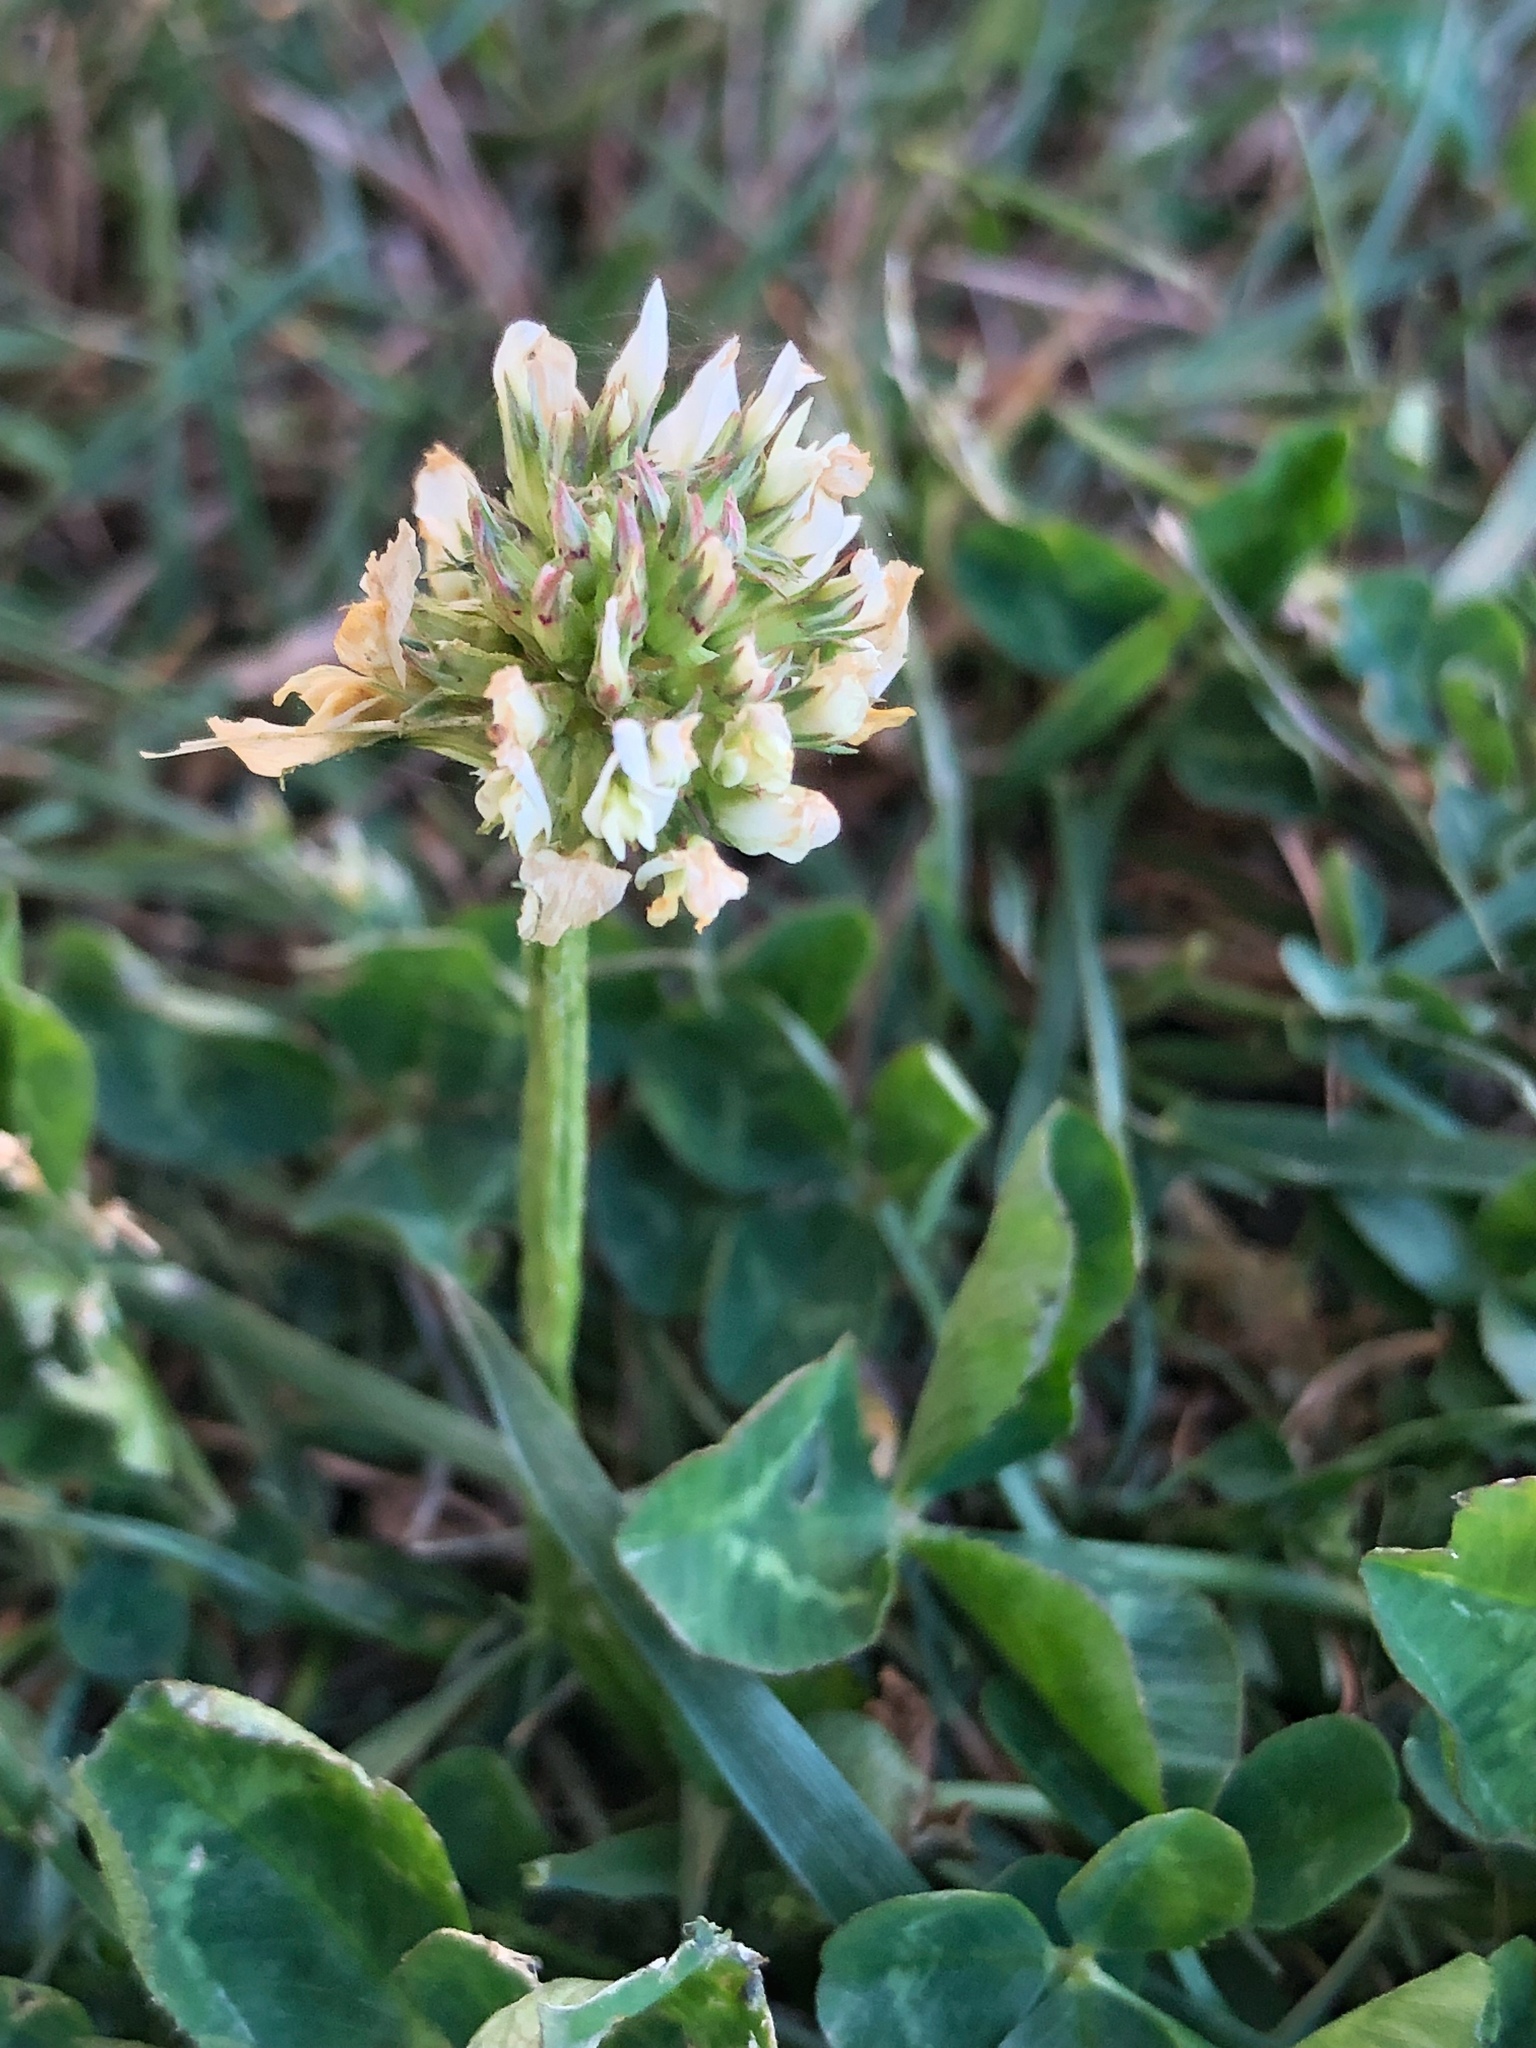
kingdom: Plantae
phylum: Tracheophyta
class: Magnoliopsida
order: Fabales
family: Fabaceae
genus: Trifolium
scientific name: Trifolium repens
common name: White clover
